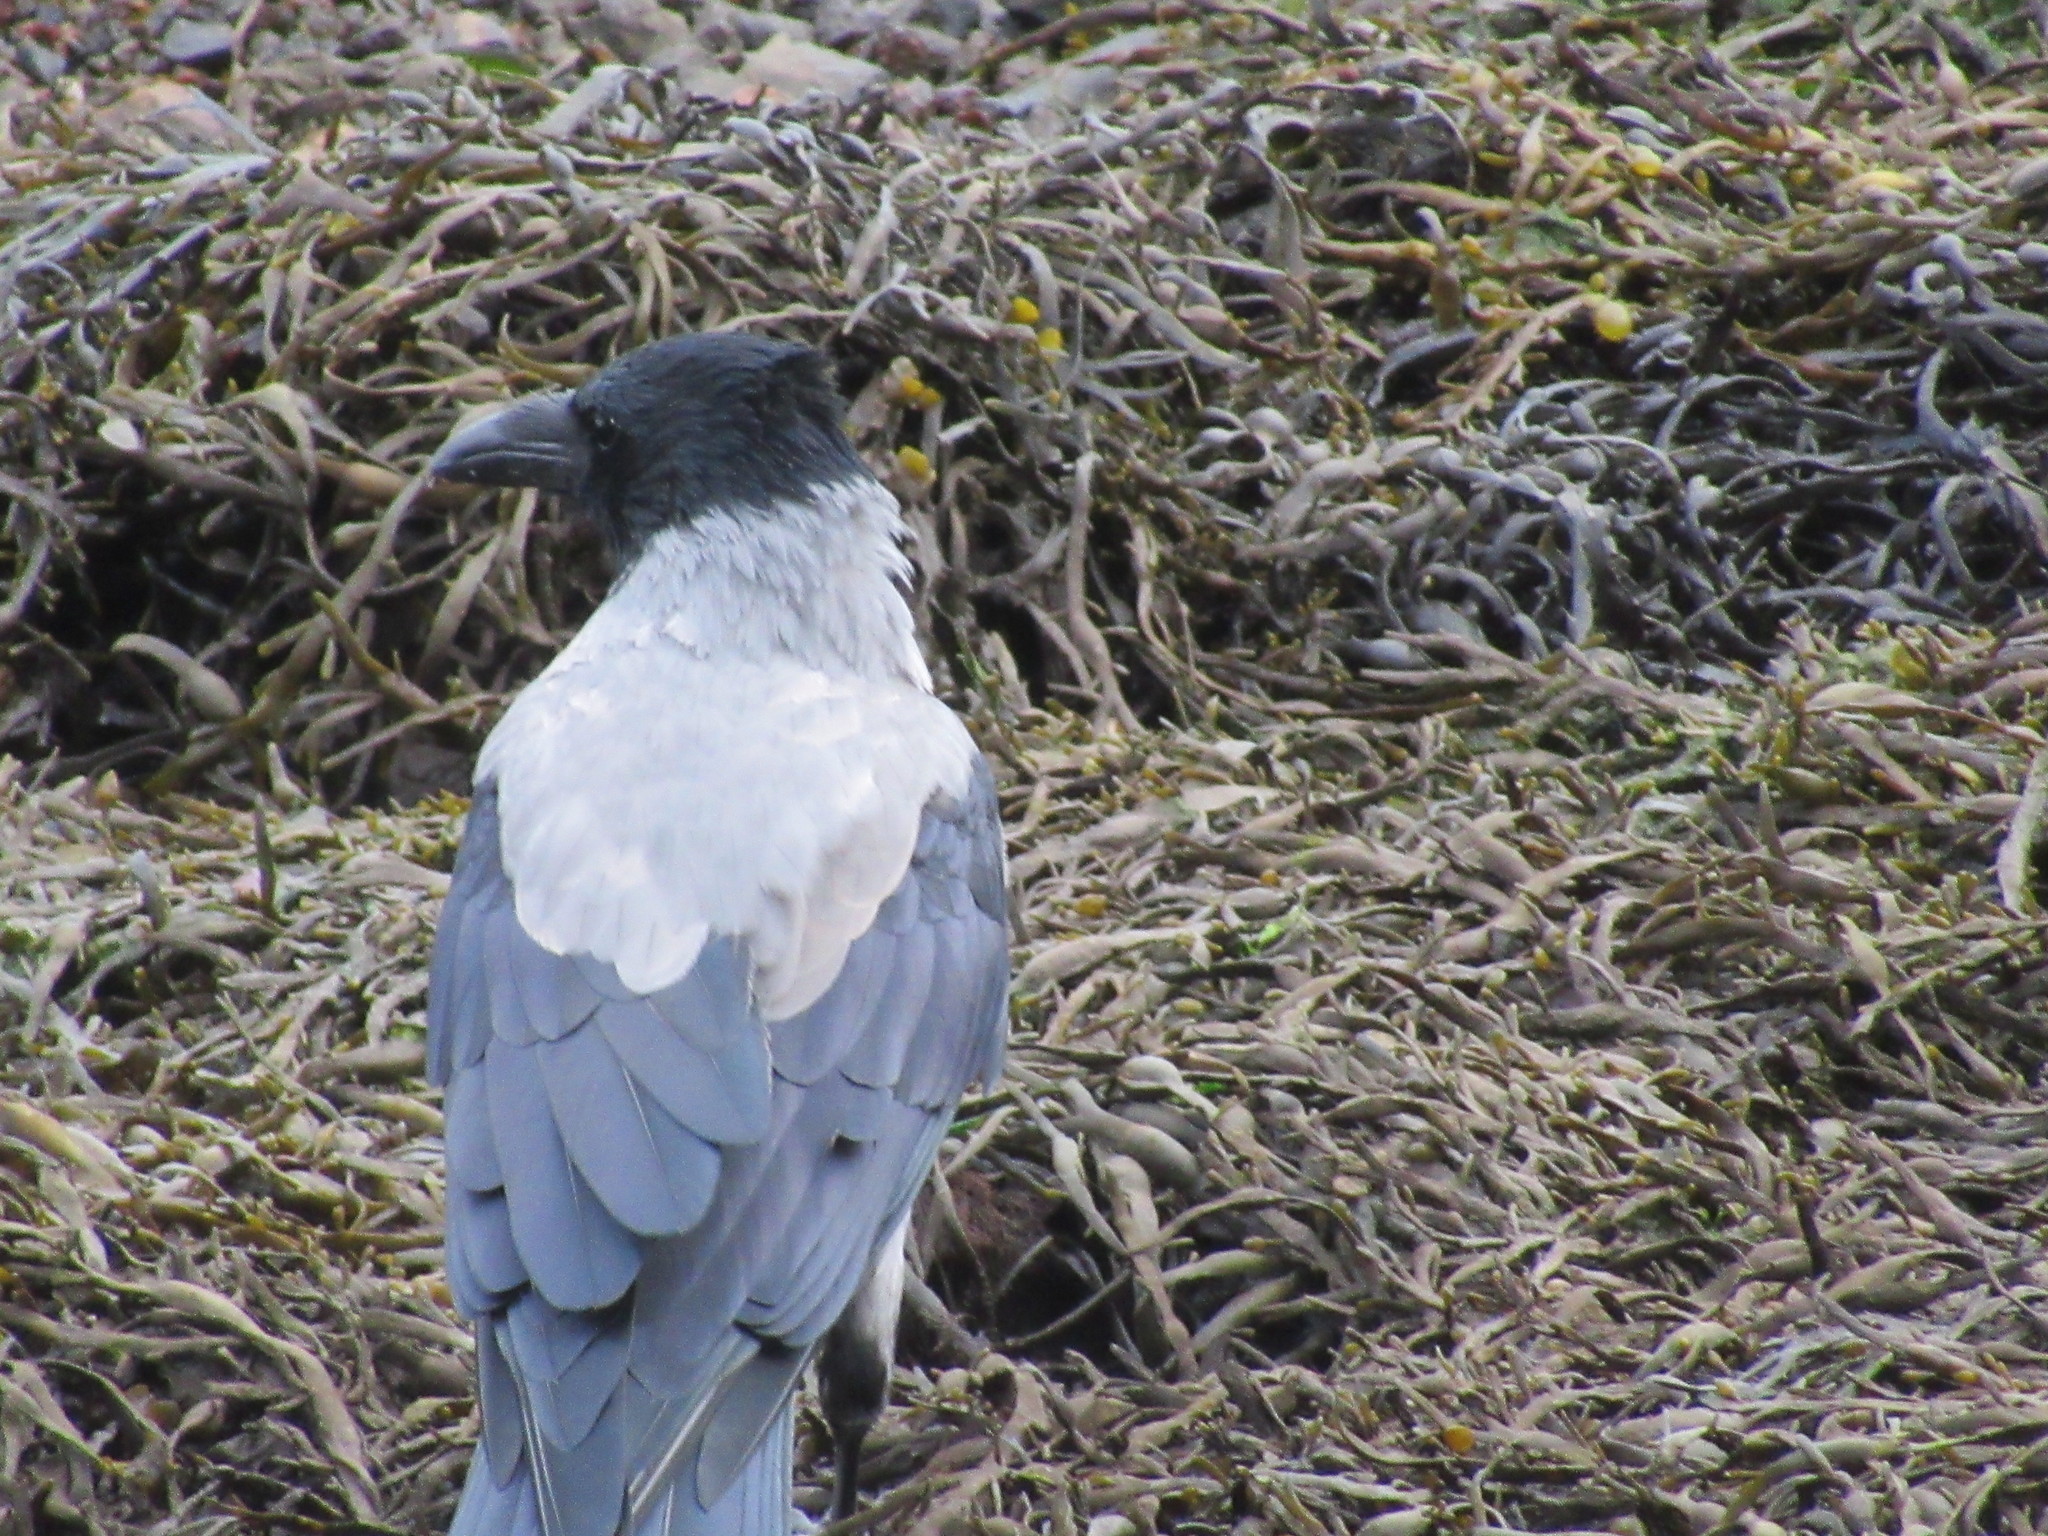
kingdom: Animalia
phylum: Chordata
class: Aves
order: Passeriformes
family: Corvidae
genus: Corvus
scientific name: Corvus cornix
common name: Hooded crow
